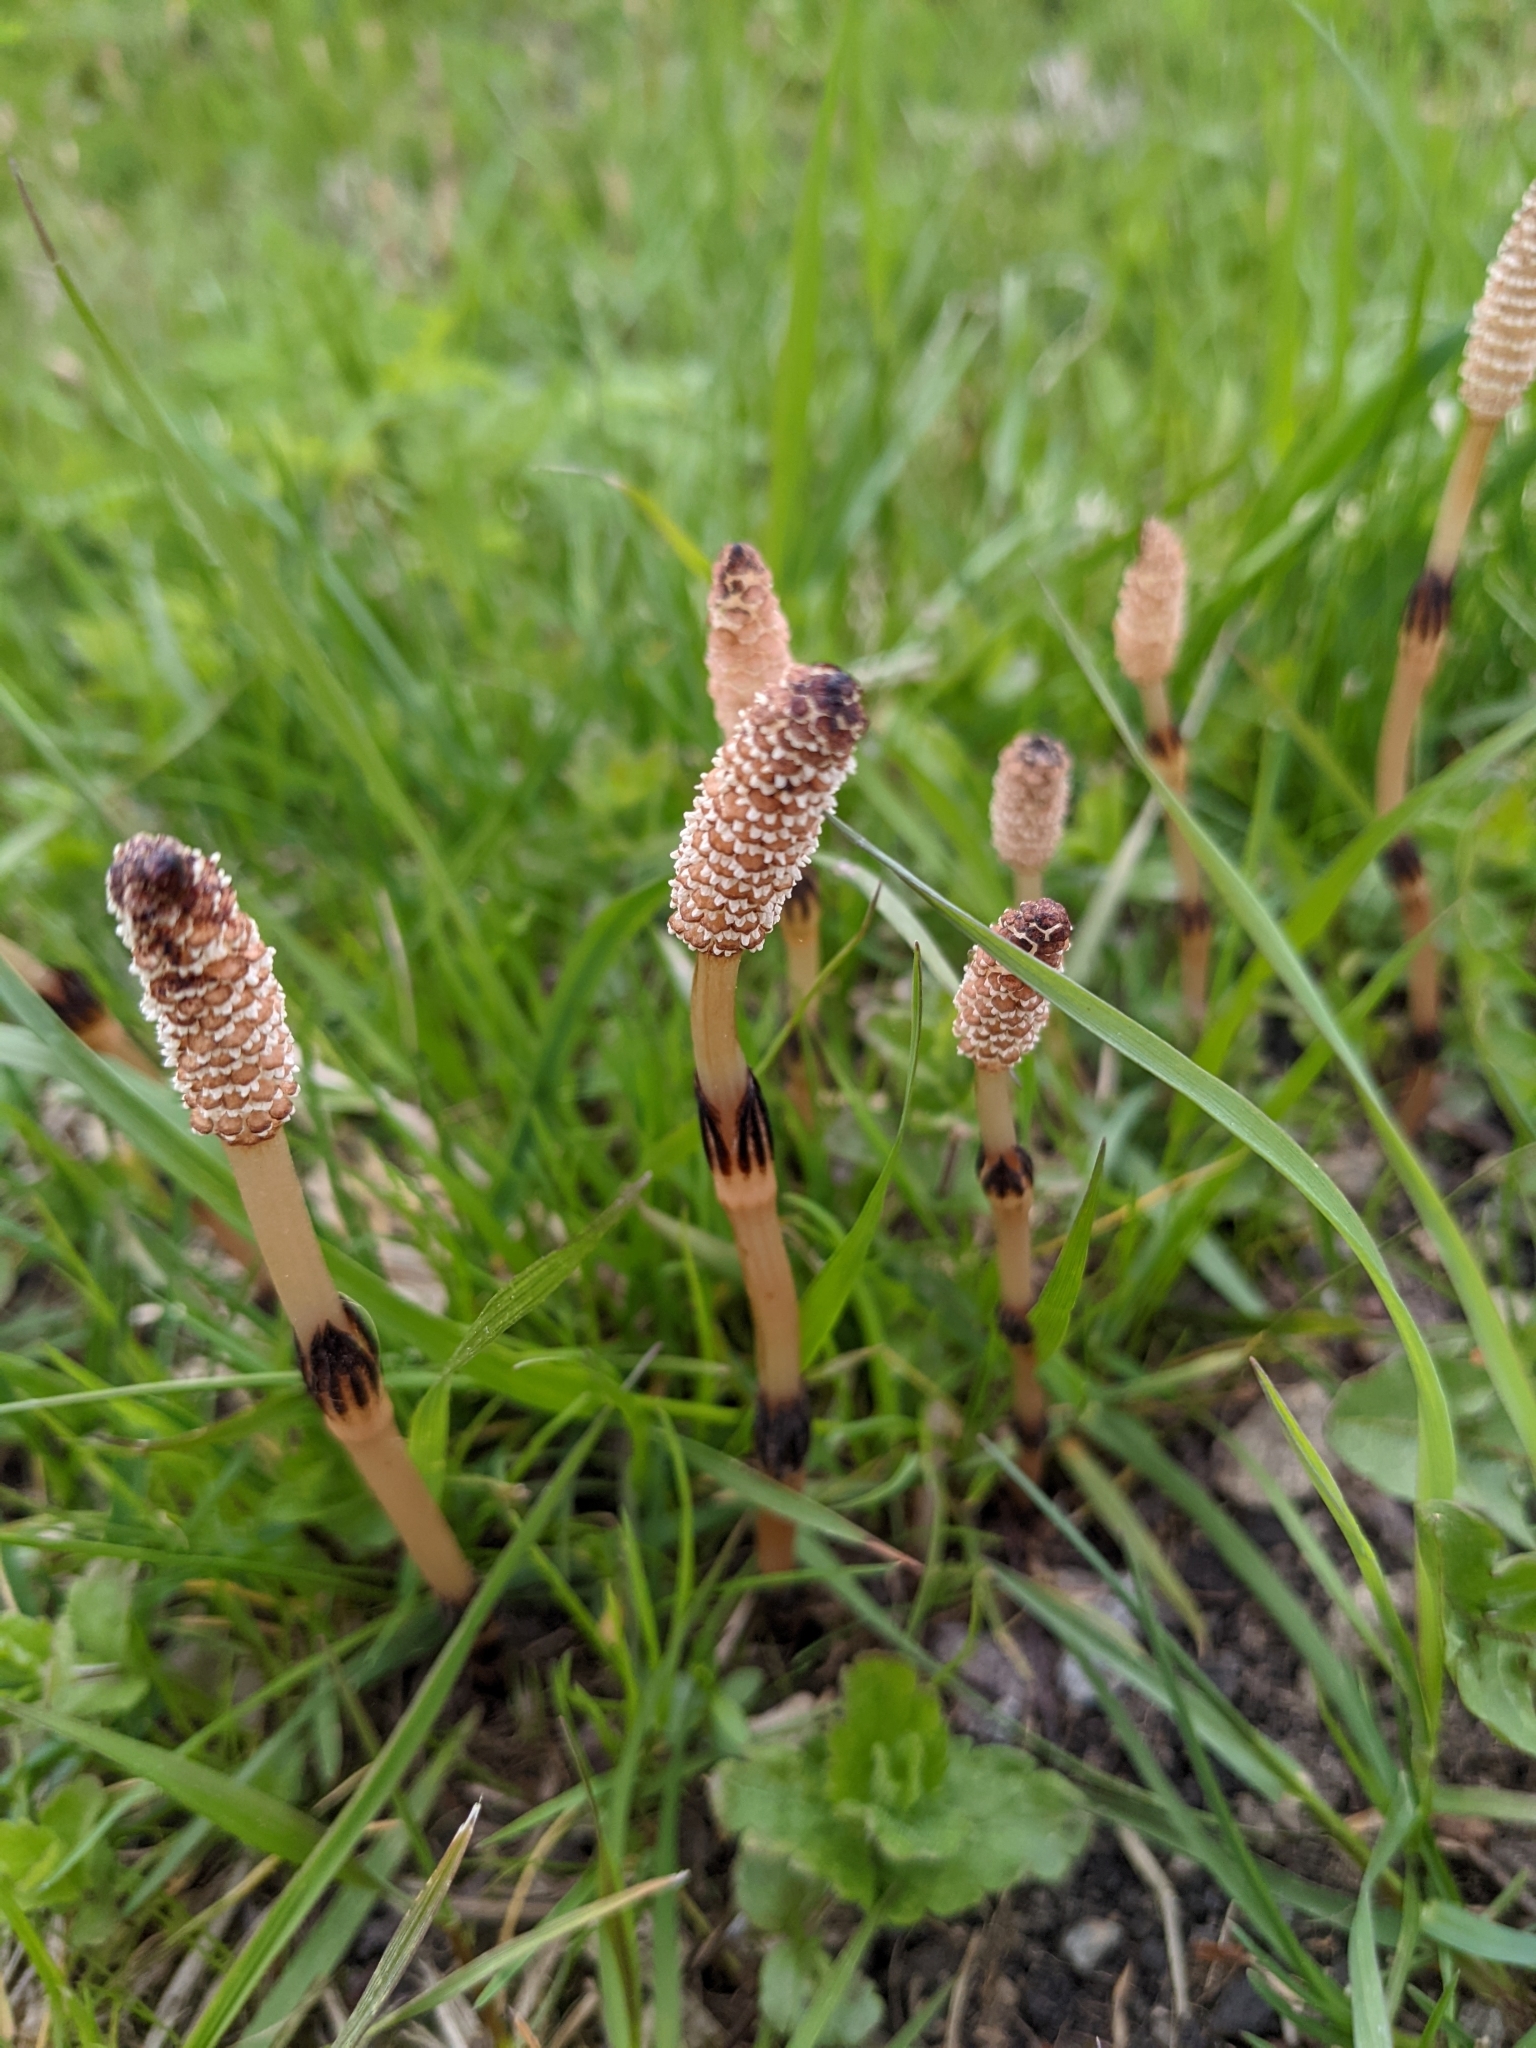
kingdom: Plantae
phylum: Tracheophyta
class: Polypodiopsida
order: Equisetales
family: Equisetaceae
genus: Equisetum
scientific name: Equisetum arvense
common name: Field horsetail
